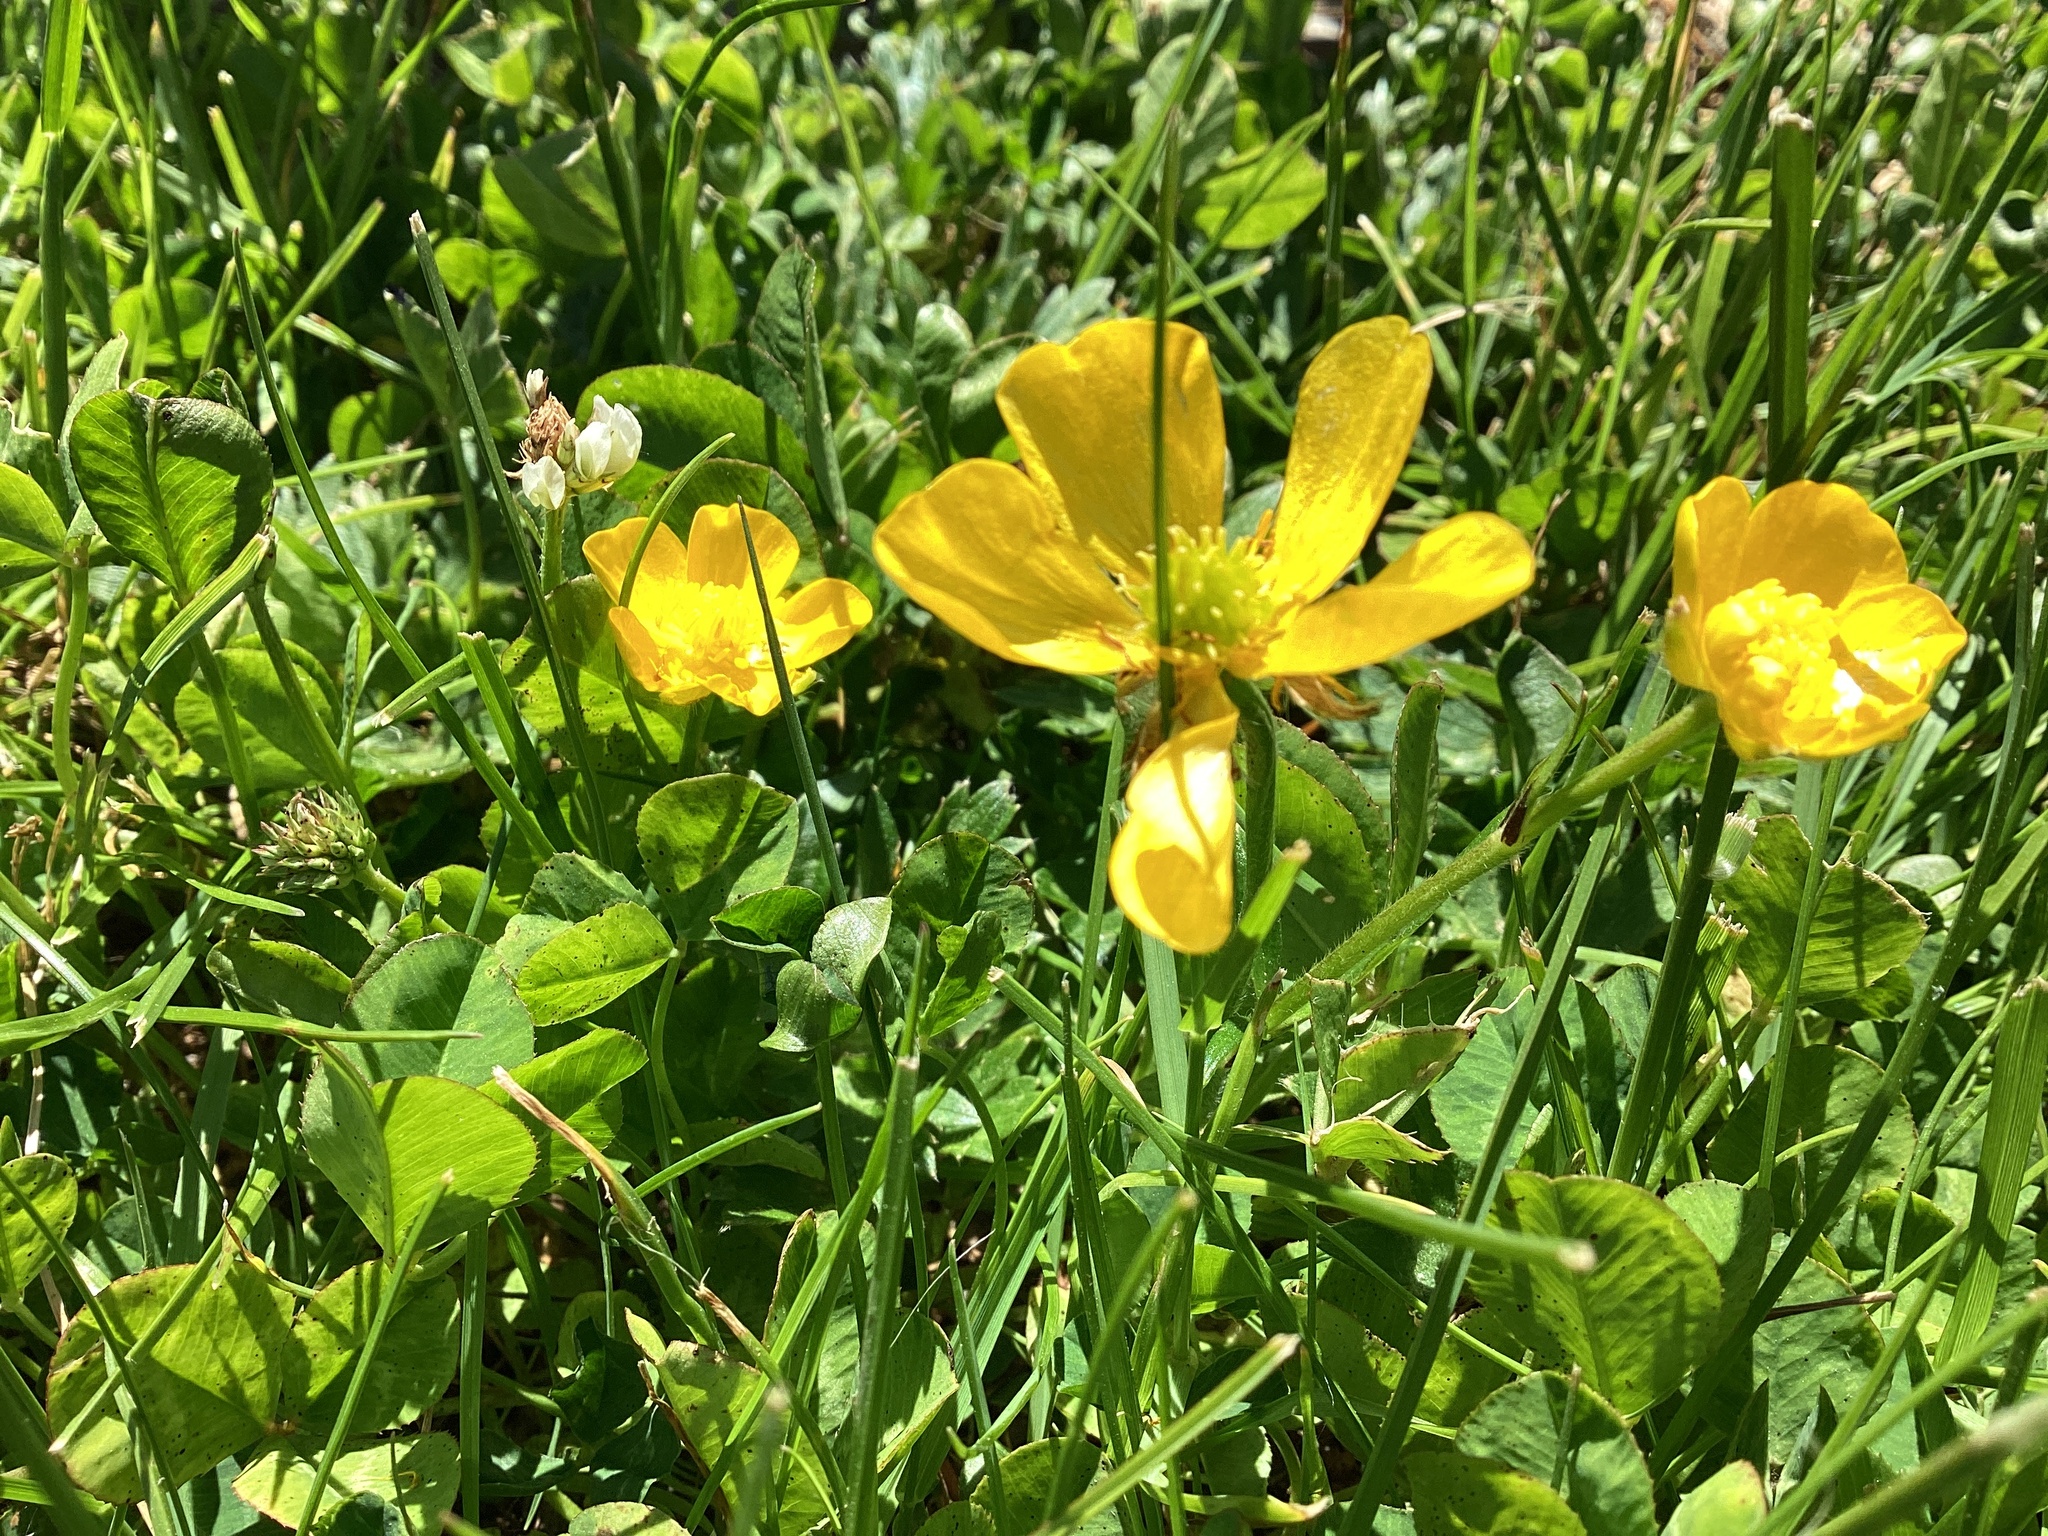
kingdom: Plantae
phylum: Tracheophyta
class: Magnoliopsida
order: Ranunculales
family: Ranunculaceae
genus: Ranunculus
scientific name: Ranunculus repens
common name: Creeping buttercup
